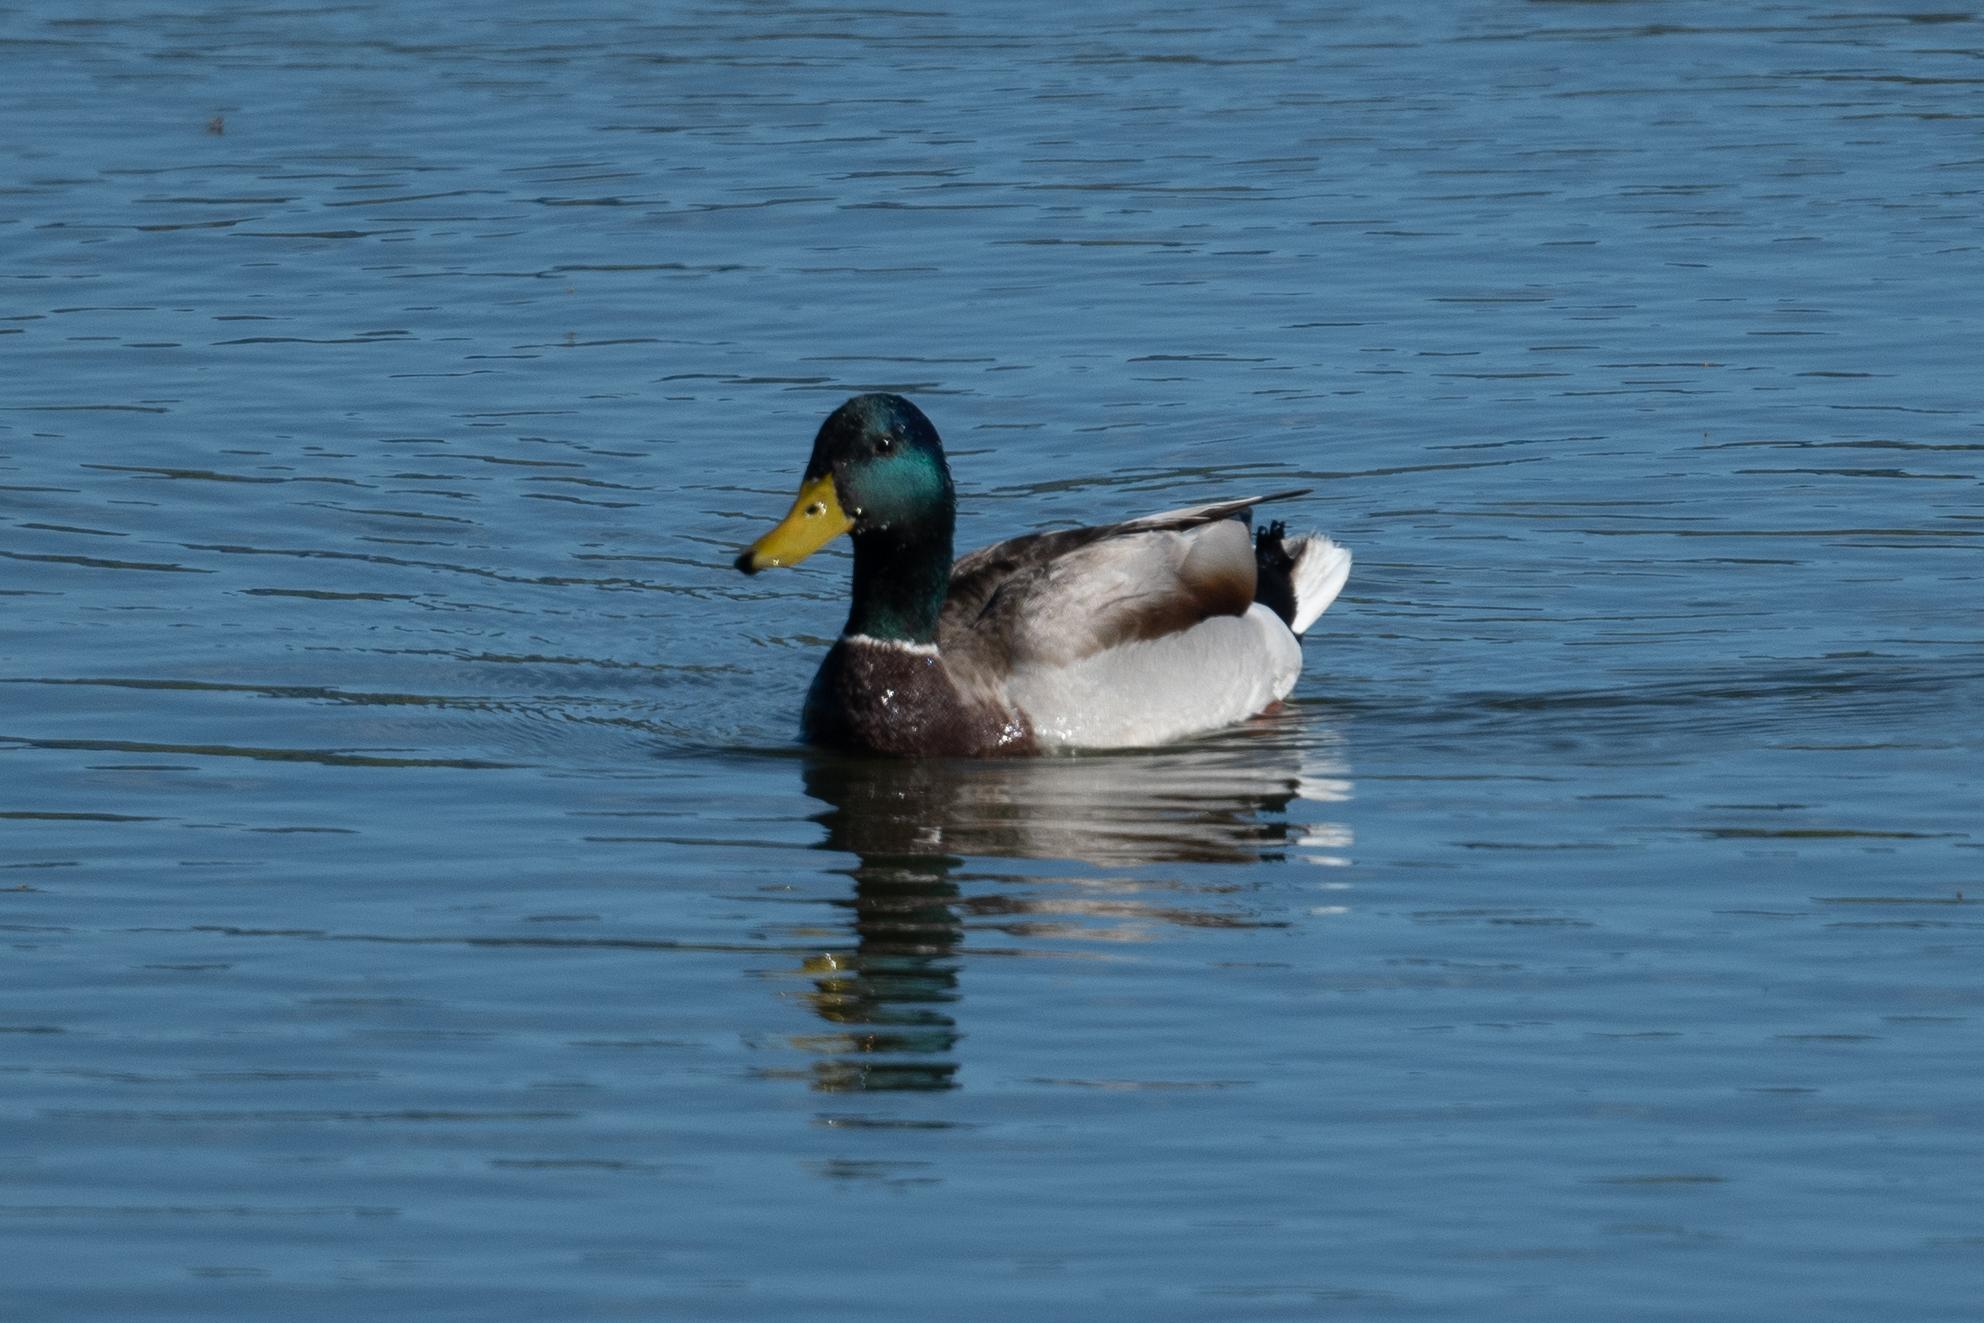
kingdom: Animalia
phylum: Chordata
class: Aves
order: Anseriformes
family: Anatidae
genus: Anas
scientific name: Anas platyrhynchos
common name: Mallard
